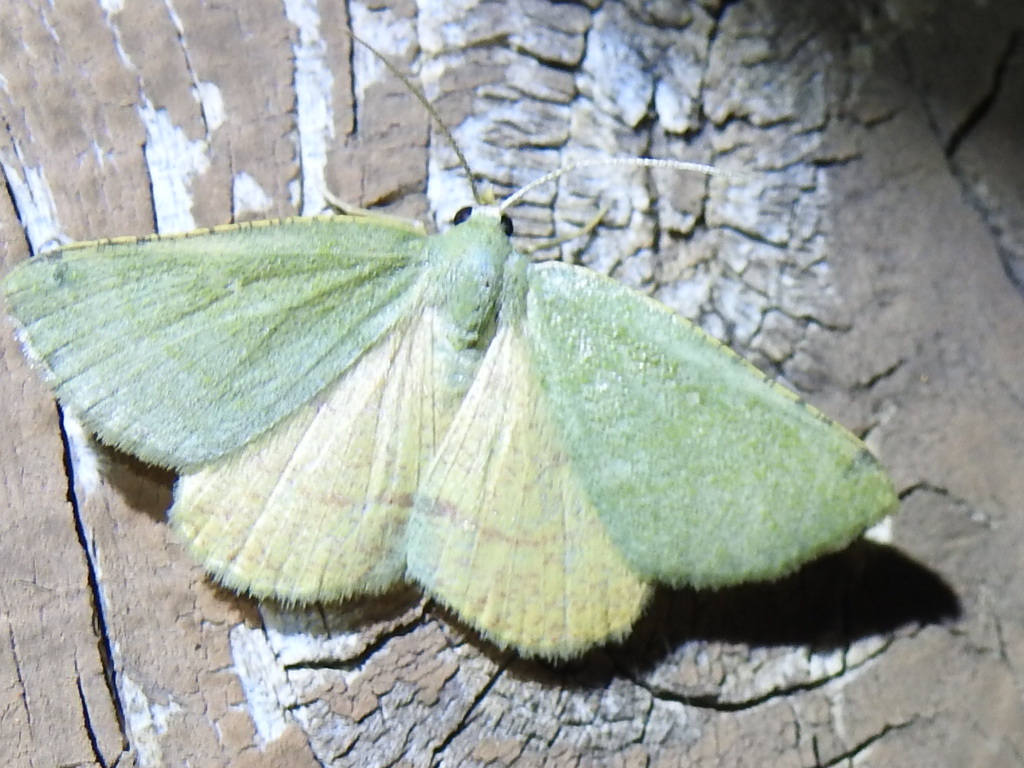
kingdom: Animalia
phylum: Arthropoda
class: Insecta
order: Lepidoptera
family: Geometridae
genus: Chloraspilates
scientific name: Chloraspilates bicoloraria
